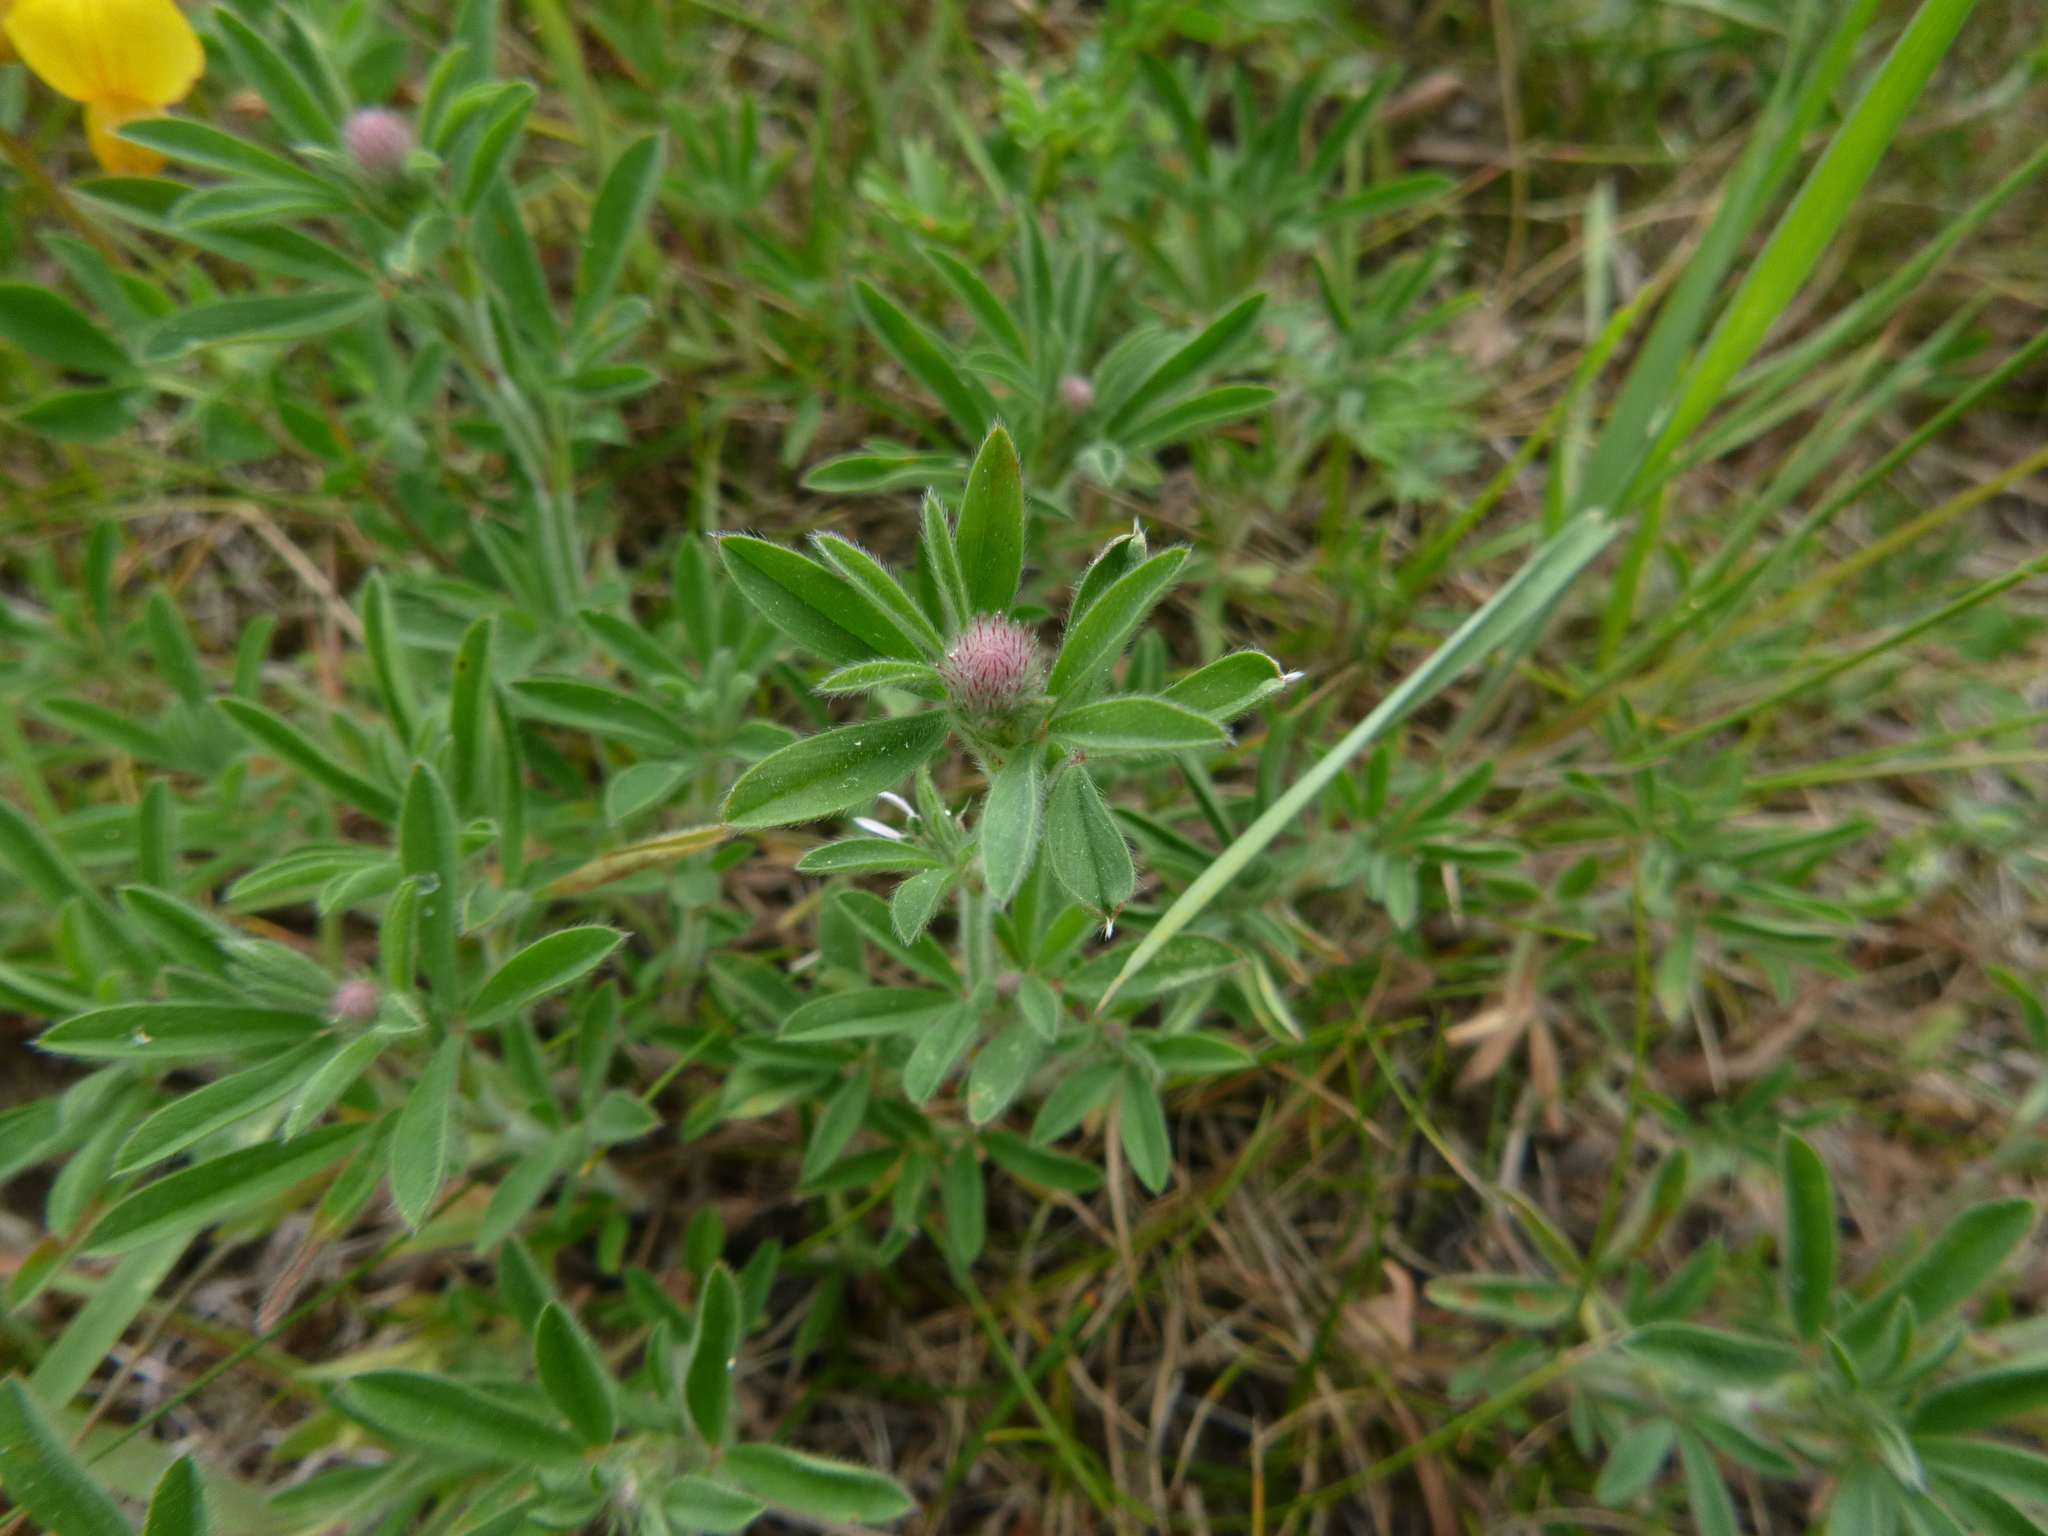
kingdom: Plantae
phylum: Tracheophyta
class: Magnoliopsida
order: Fabales
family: Fabaceae
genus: Trifolium
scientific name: Trifolium arvense
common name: Hare's-foot clover
